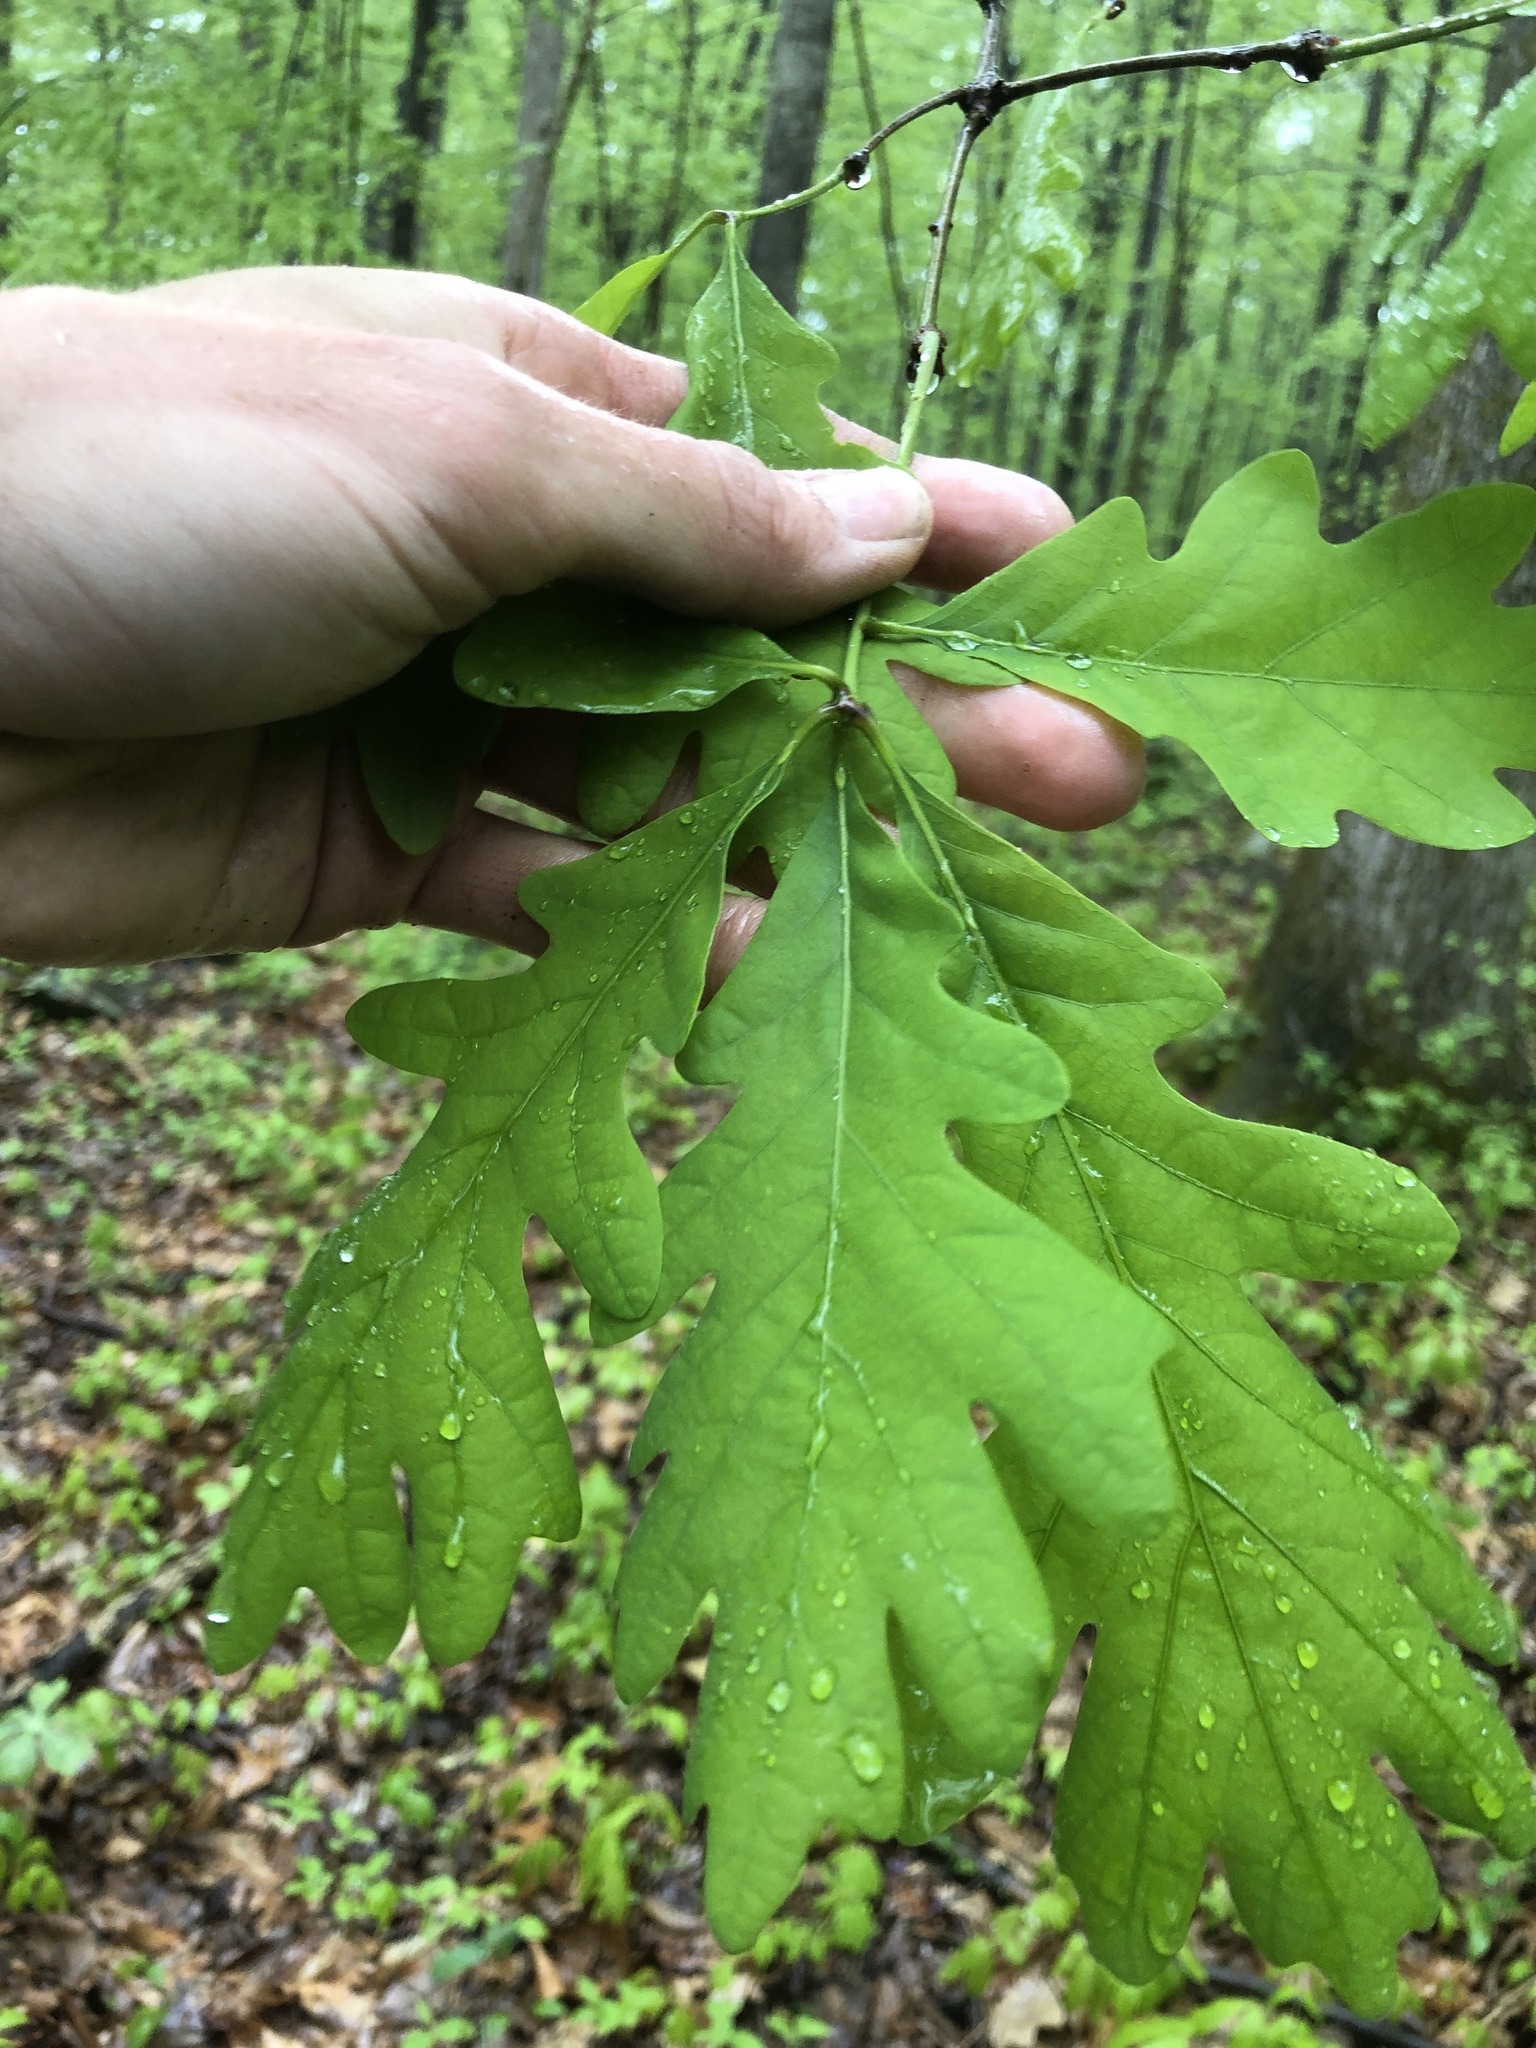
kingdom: Plantae
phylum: Tracheophyta
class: Magnoliopsida
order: Fagales
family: Fagaceae
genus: Quercus
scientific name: Quercus alba
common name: White oak
